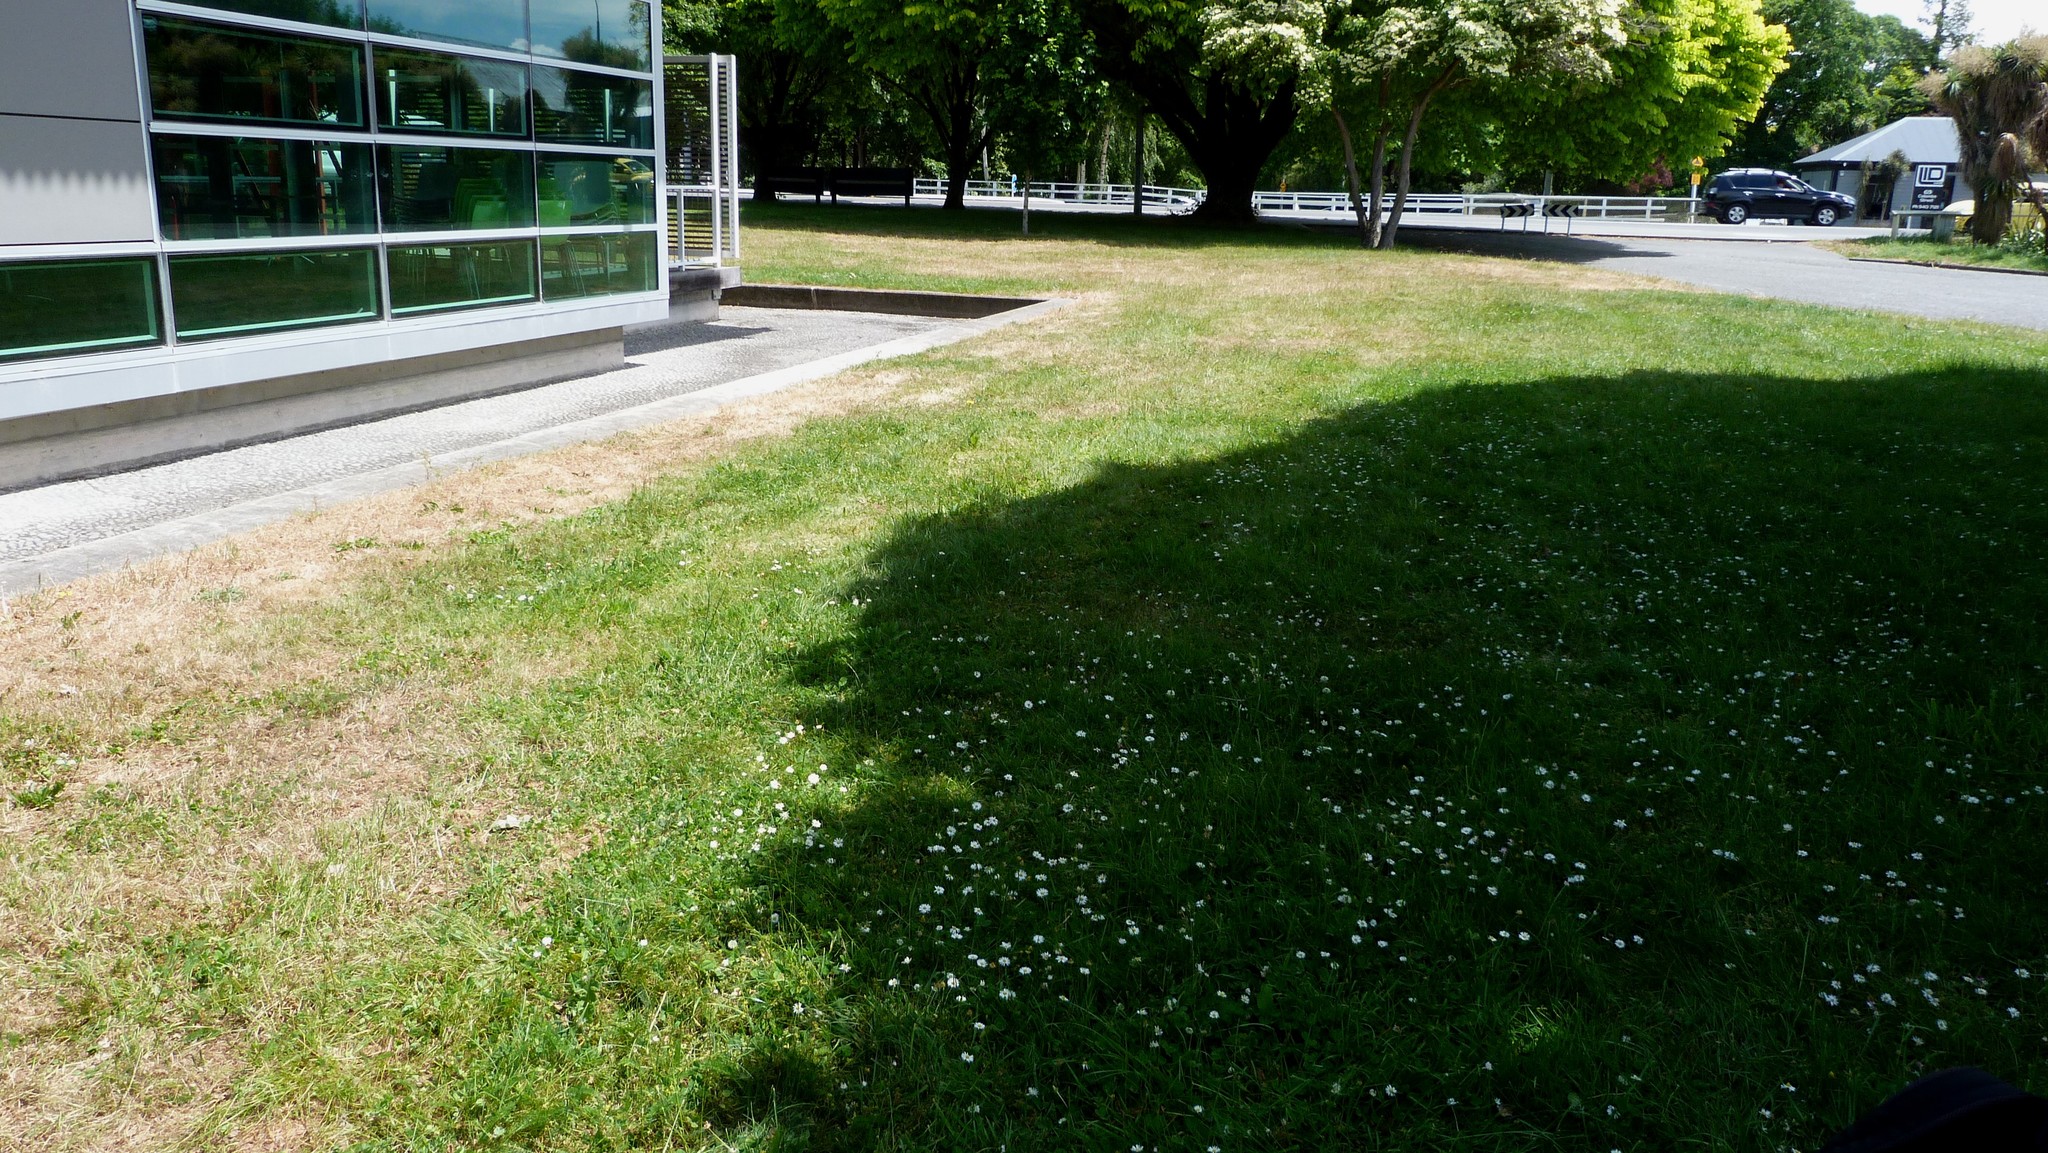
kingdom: Plantae
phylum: Tracheophyta
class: Magnoliopsida
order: Asterales
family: Asteraceae
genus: Leptinella
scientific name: Leptinella dioica
